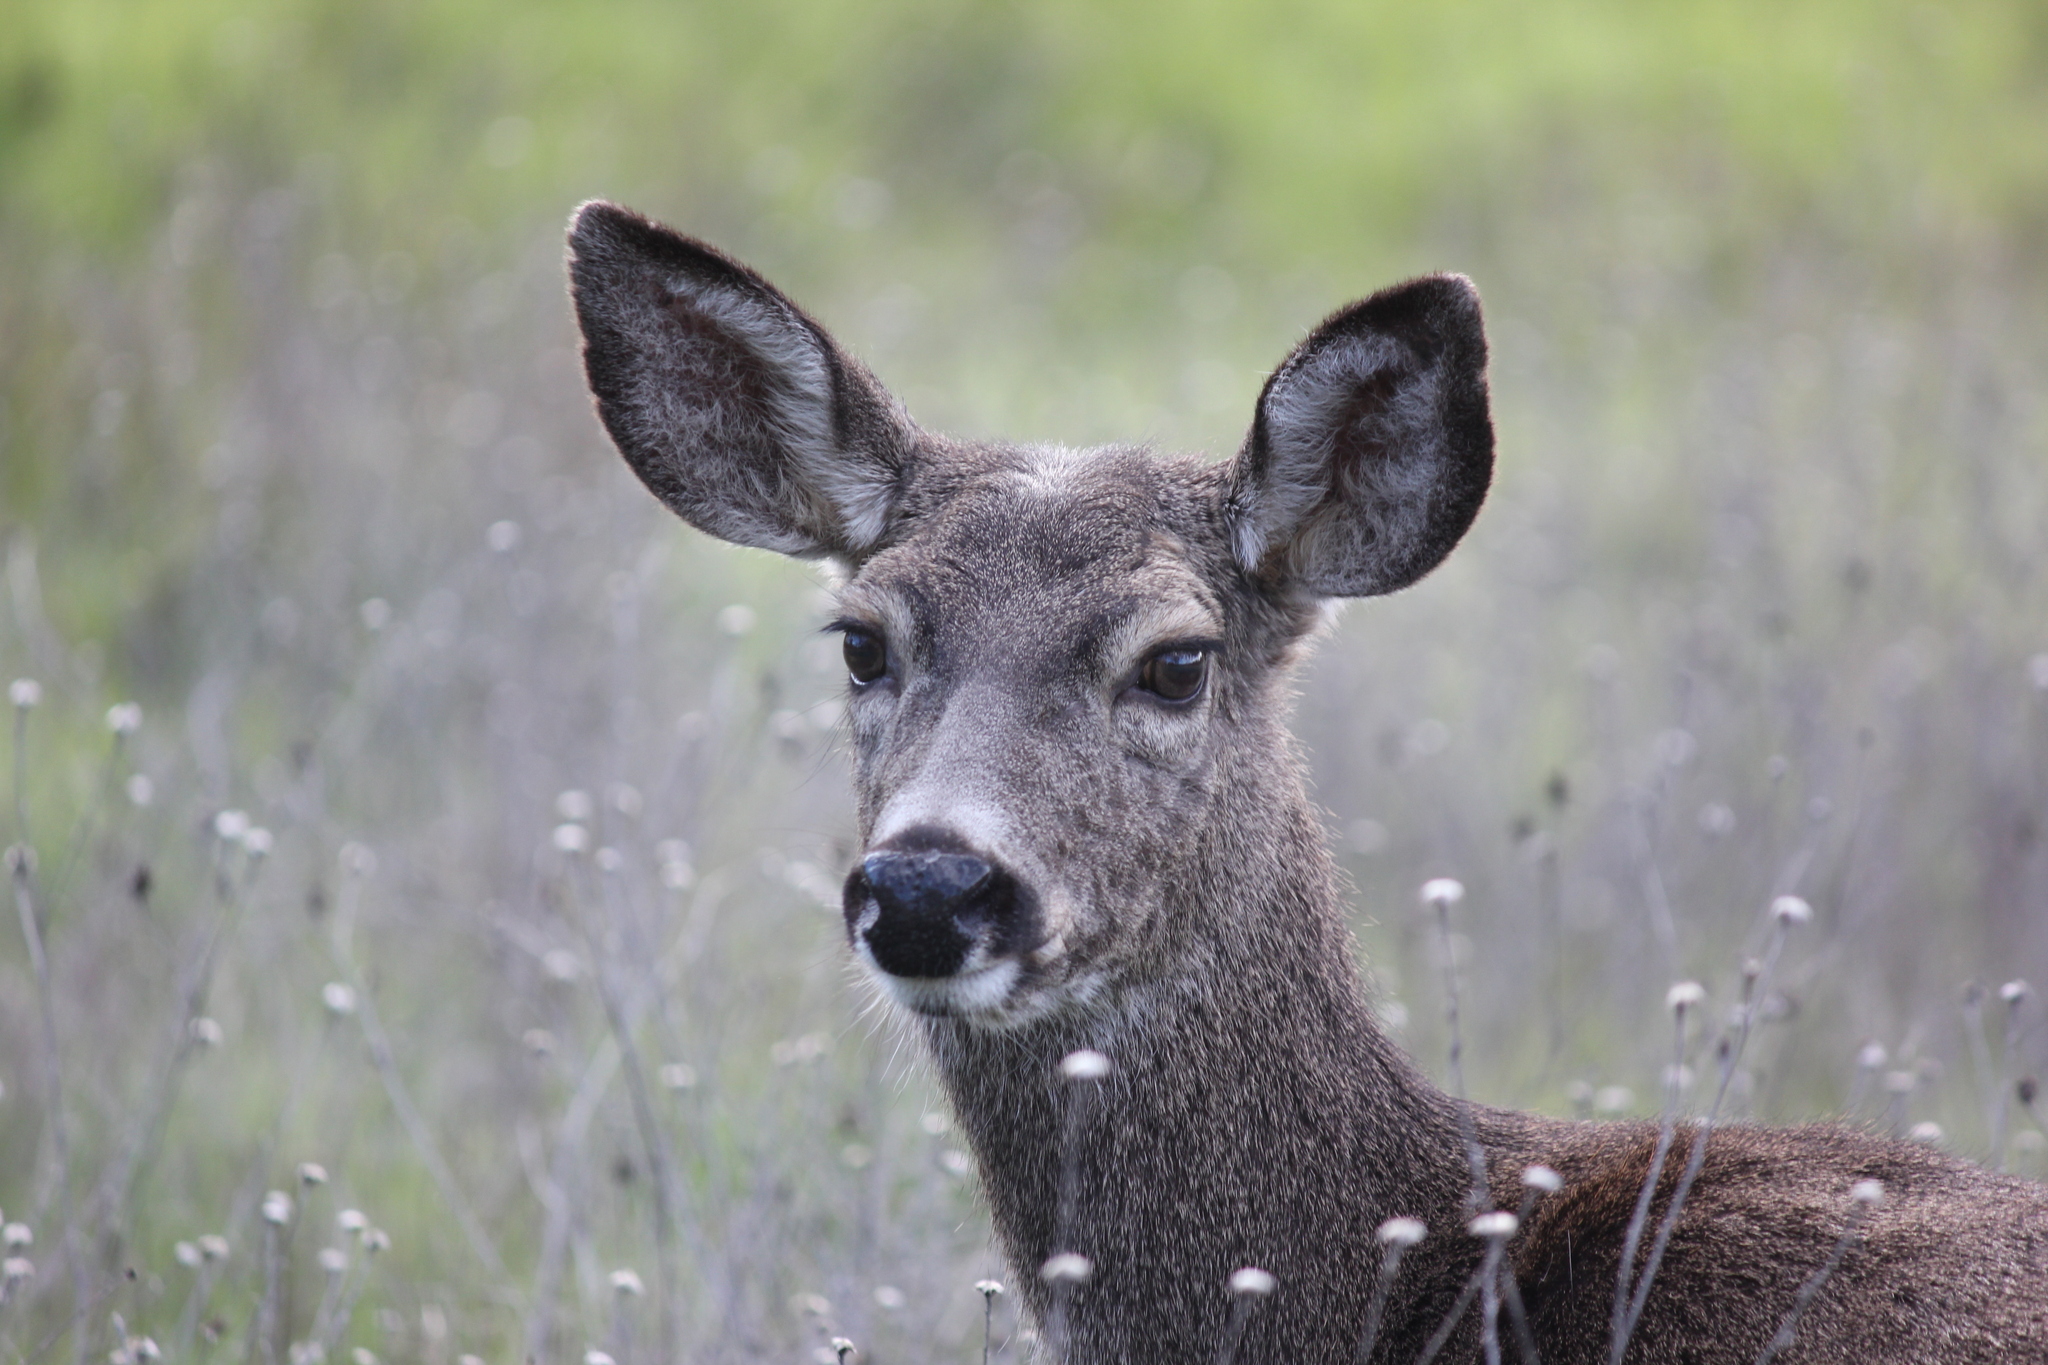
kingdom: Animalia
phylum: Chordata
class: Mammalia
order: Artiodactyla
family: Cervidae
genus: Odocoileus
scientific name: Odocoileus hemionus
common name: Mule deer
